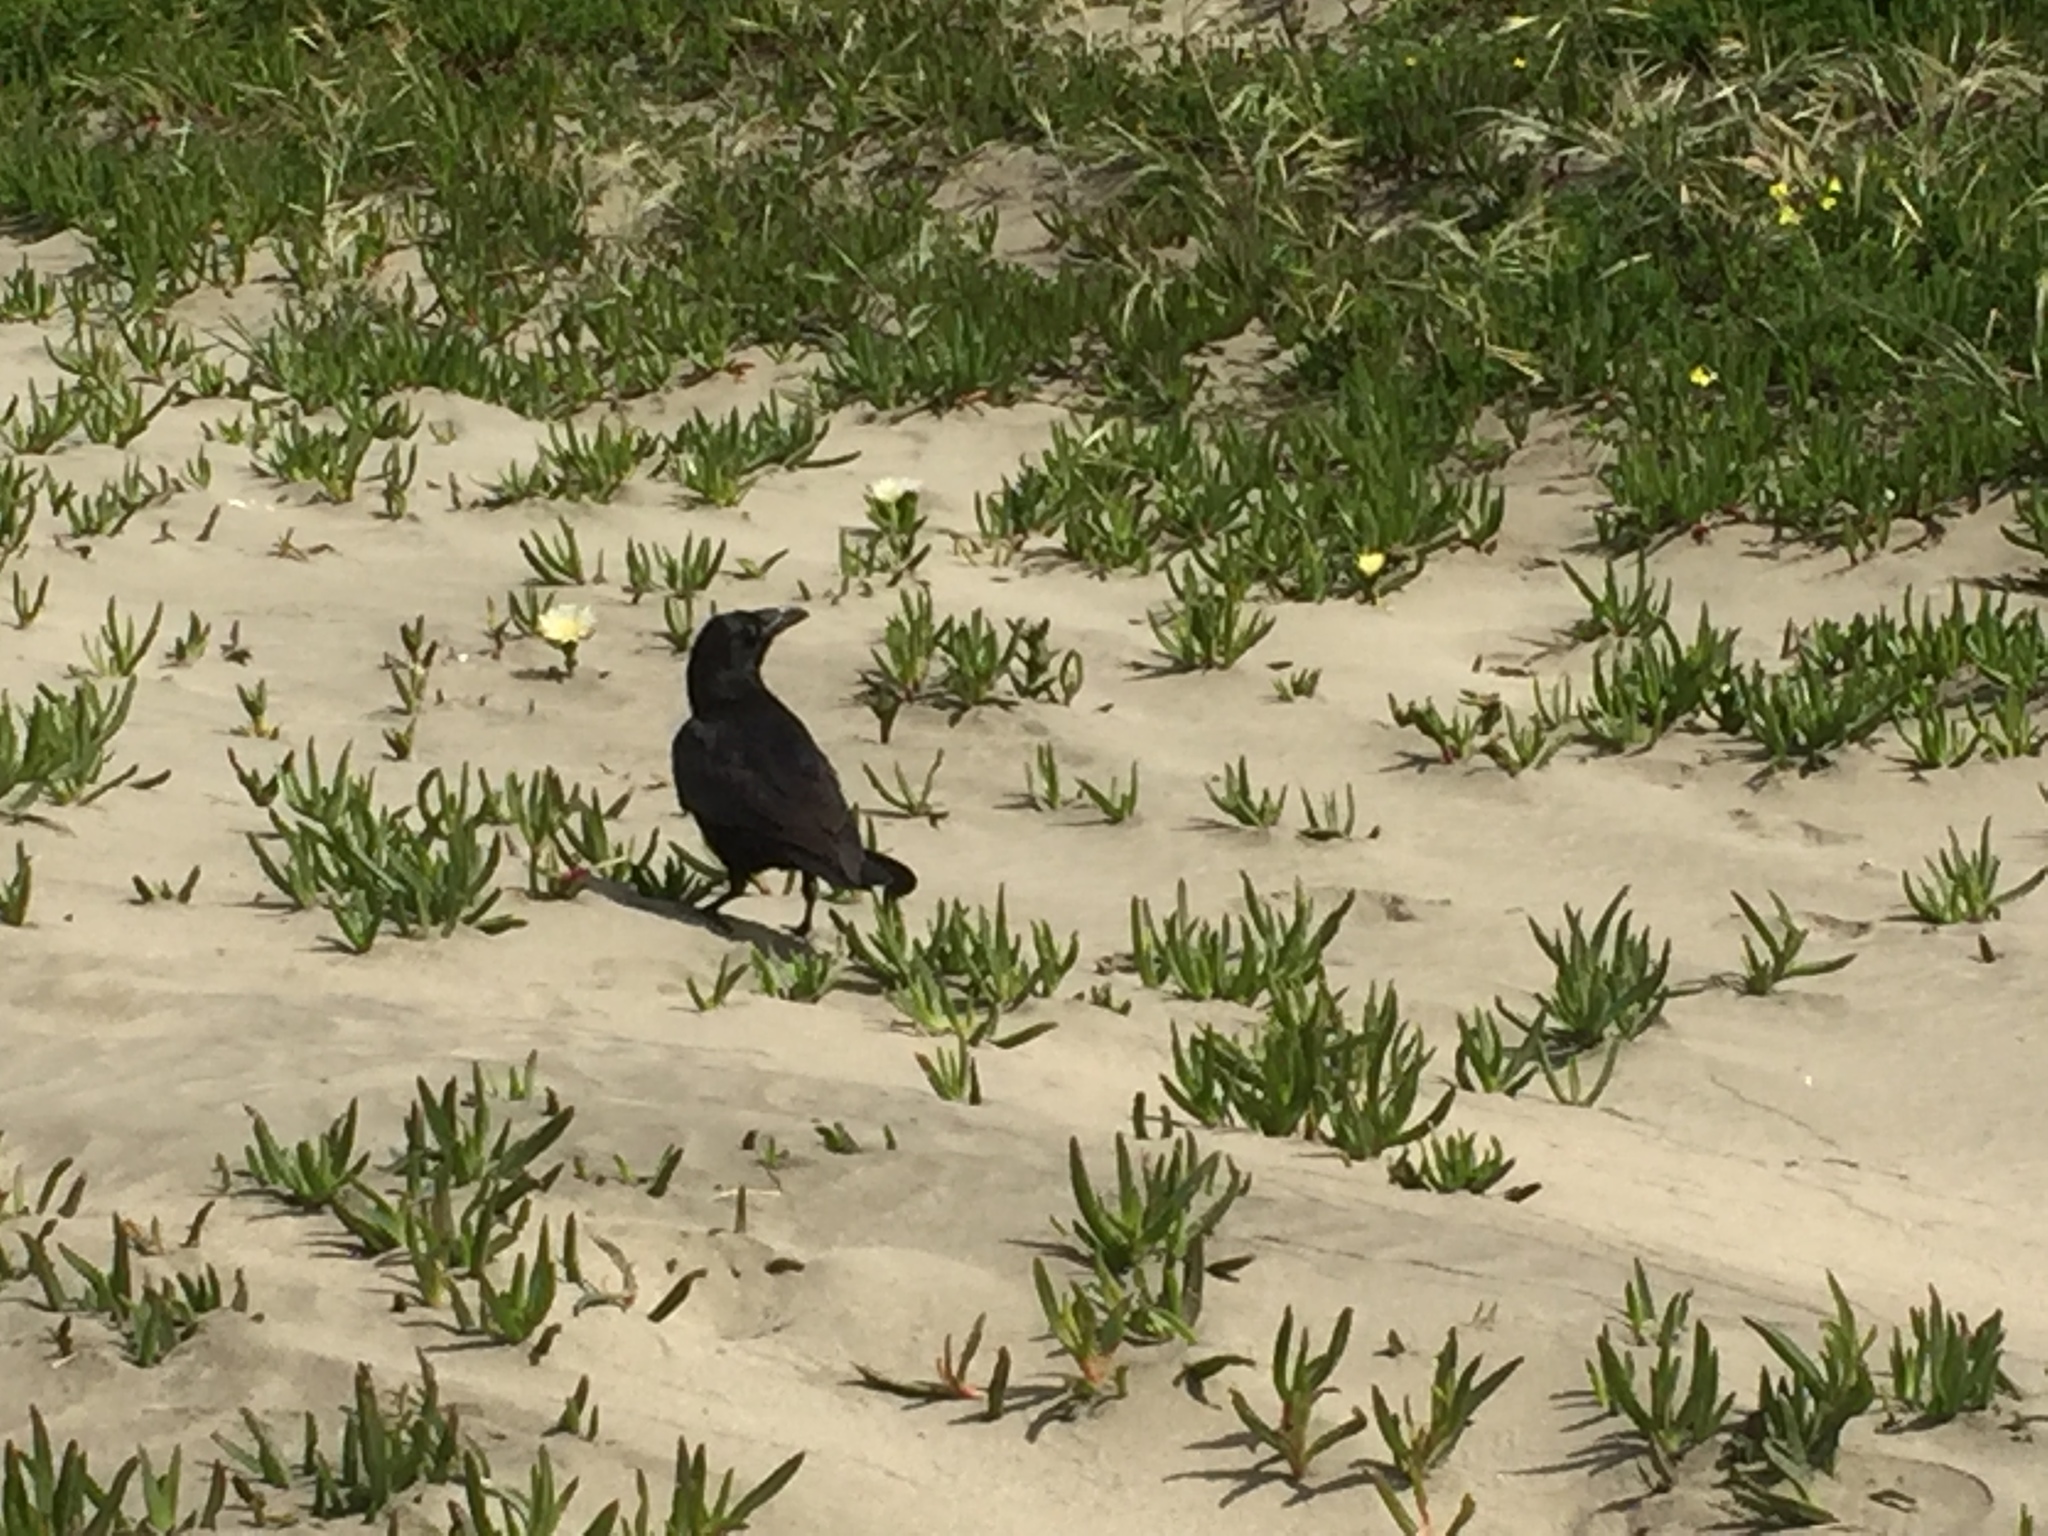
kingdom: Animalia
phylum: Chordata
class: Aves
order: Passeriformes
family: Corvidae
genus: Corvus
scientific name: Corvus corax
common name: Common raven
